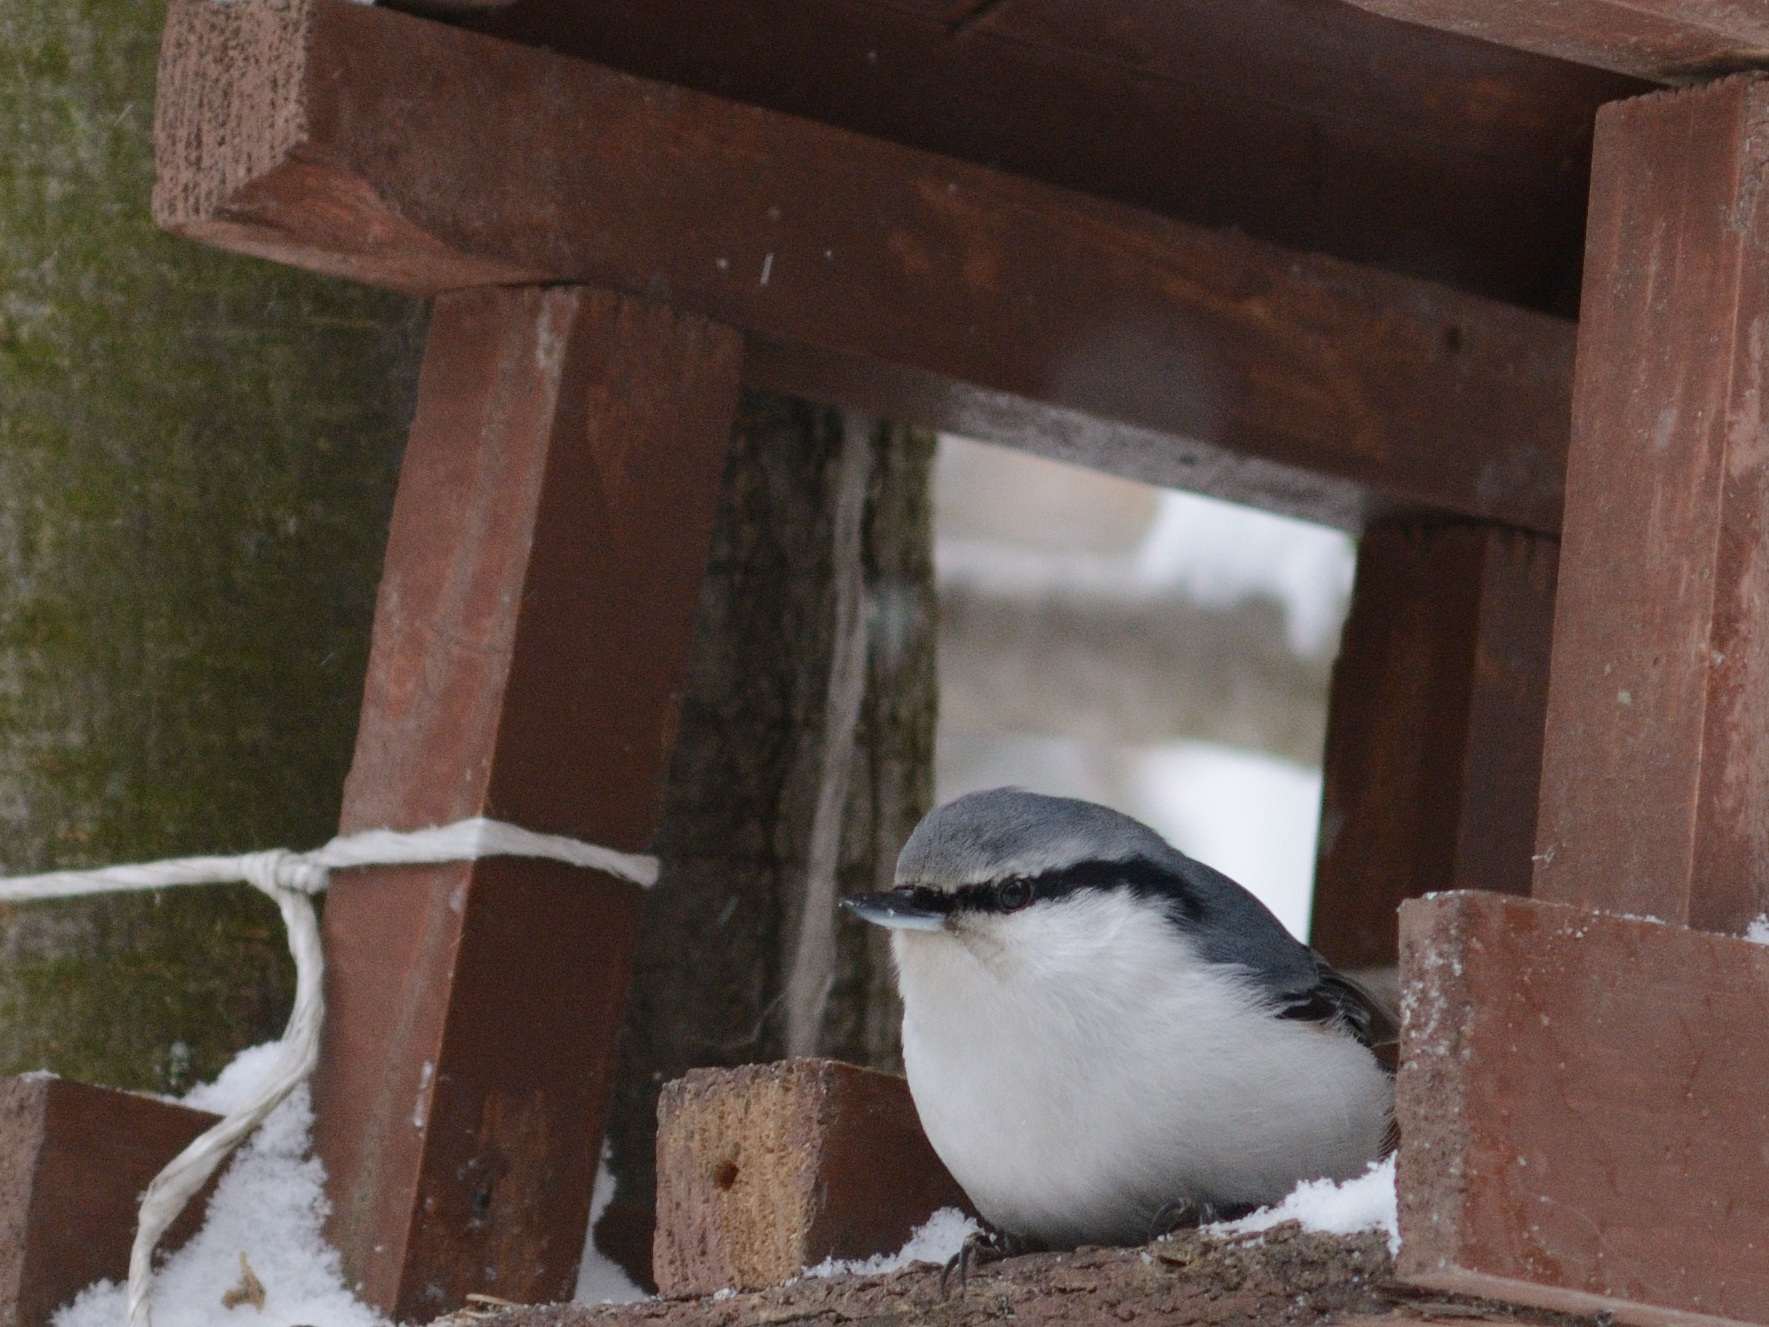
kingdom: Animalia
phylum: Chordata
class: Aves
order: Passeriformes
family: Sittidae
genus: Sitta
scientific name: Sitta europaea
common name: Eurasian nuthatch
